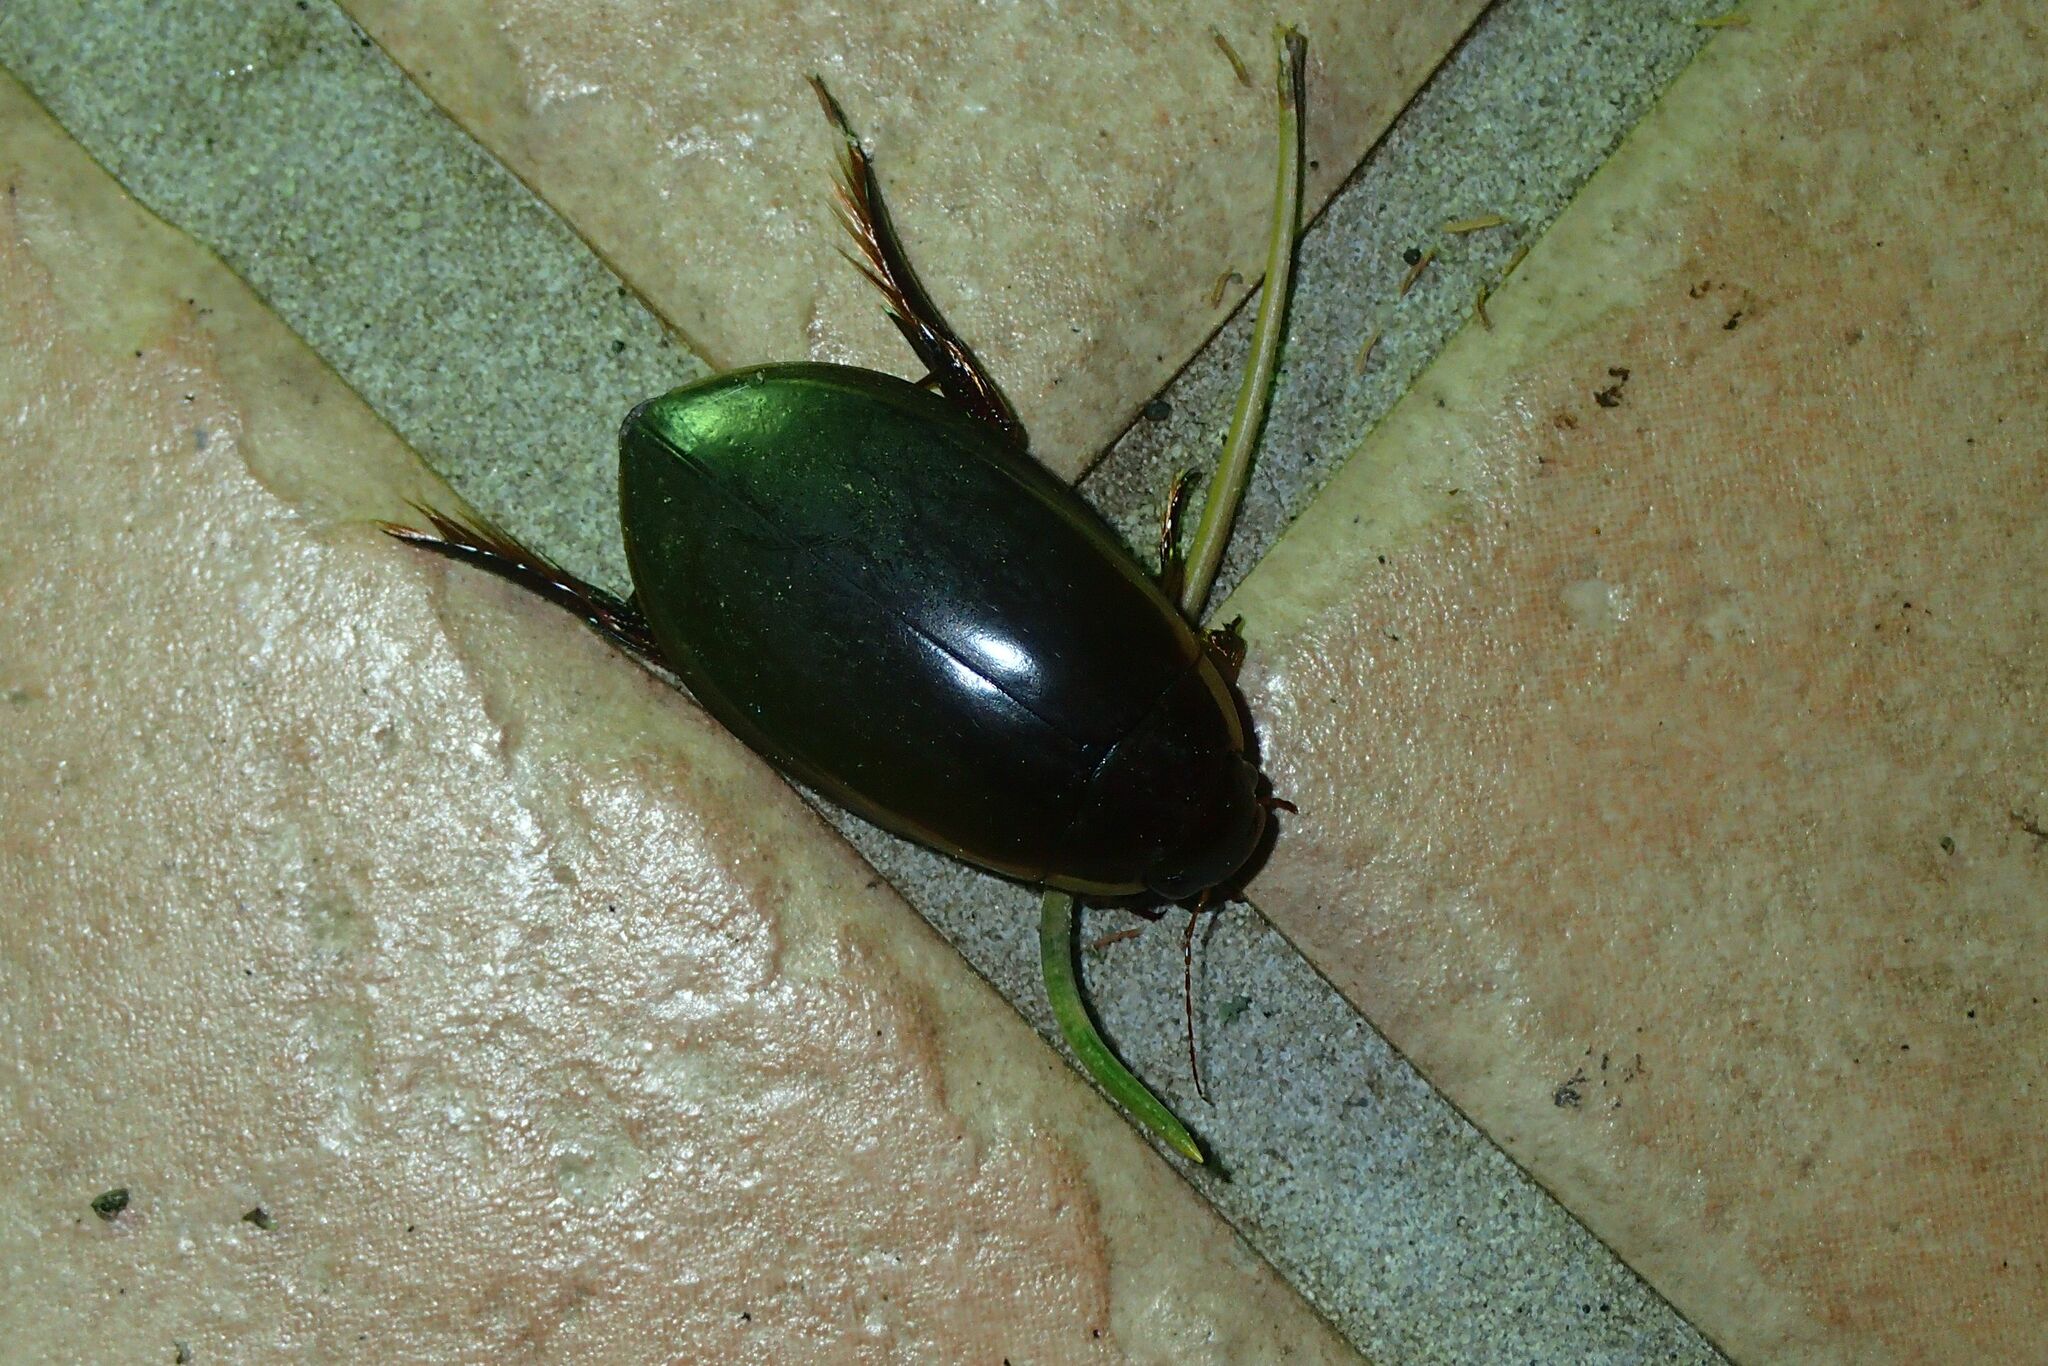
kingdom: Animalia
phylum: Arthropoda
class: Insecta
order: Coleoptera
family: Dytiscidae
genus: Cybister
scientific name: Cybister lateralimarginalis
